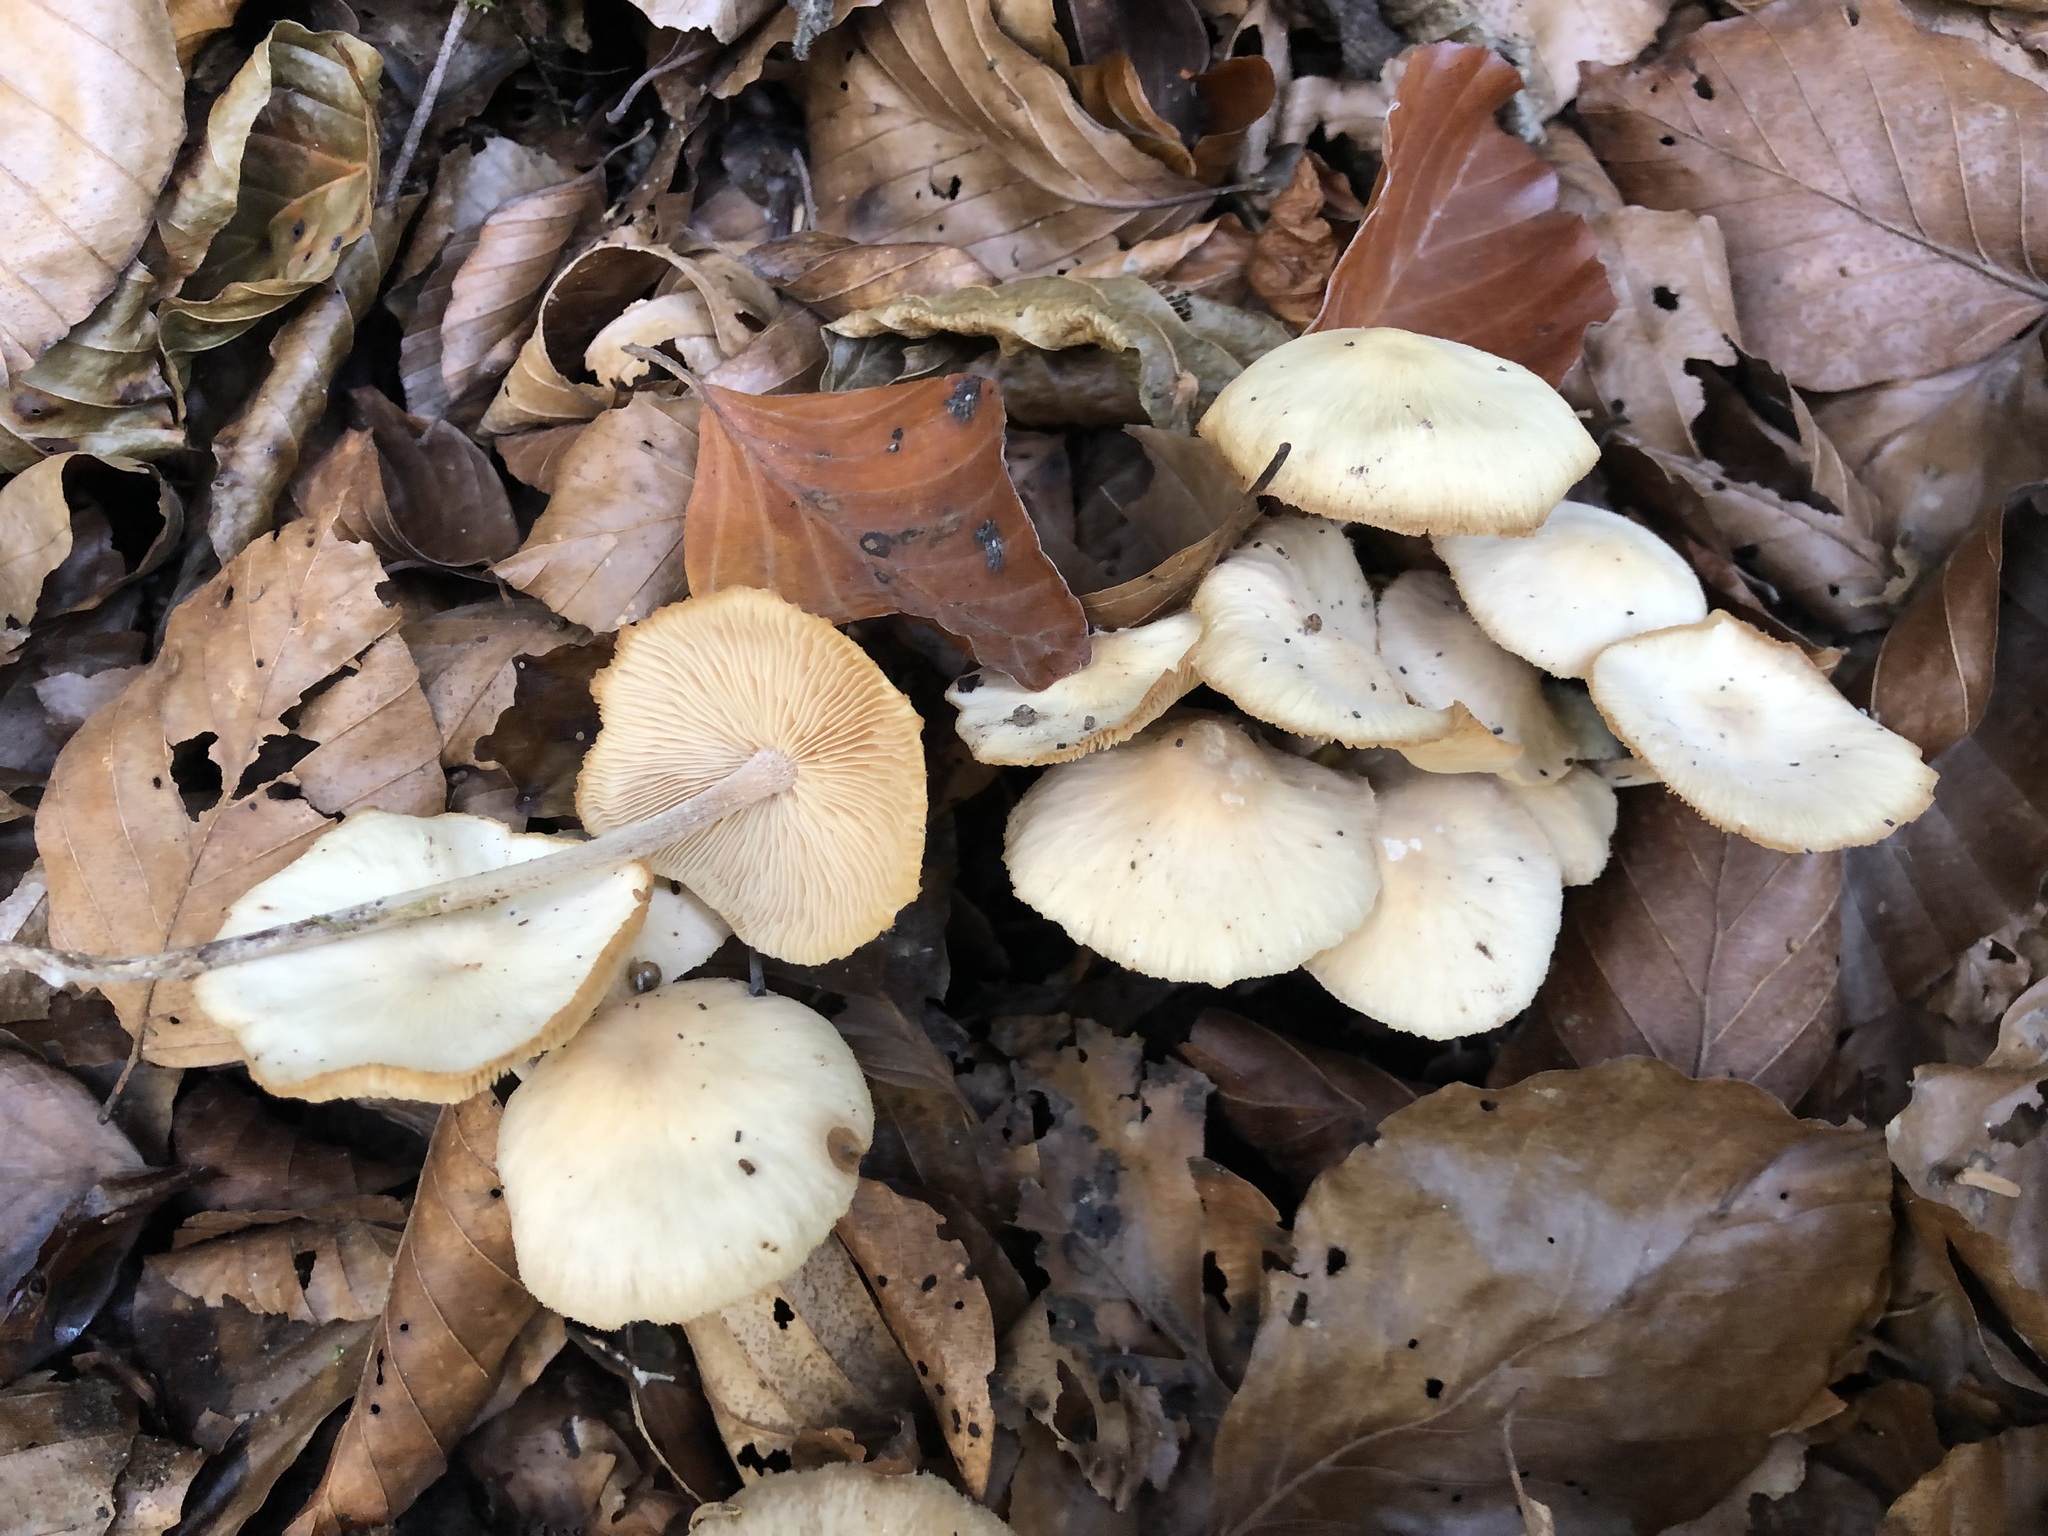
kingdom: Fungi
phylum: Basidiomycota
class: Agaricomycetes
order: Agaricales
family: Omphalotaceae
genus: Collybiopsis
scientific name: Collybiopsis confluens
